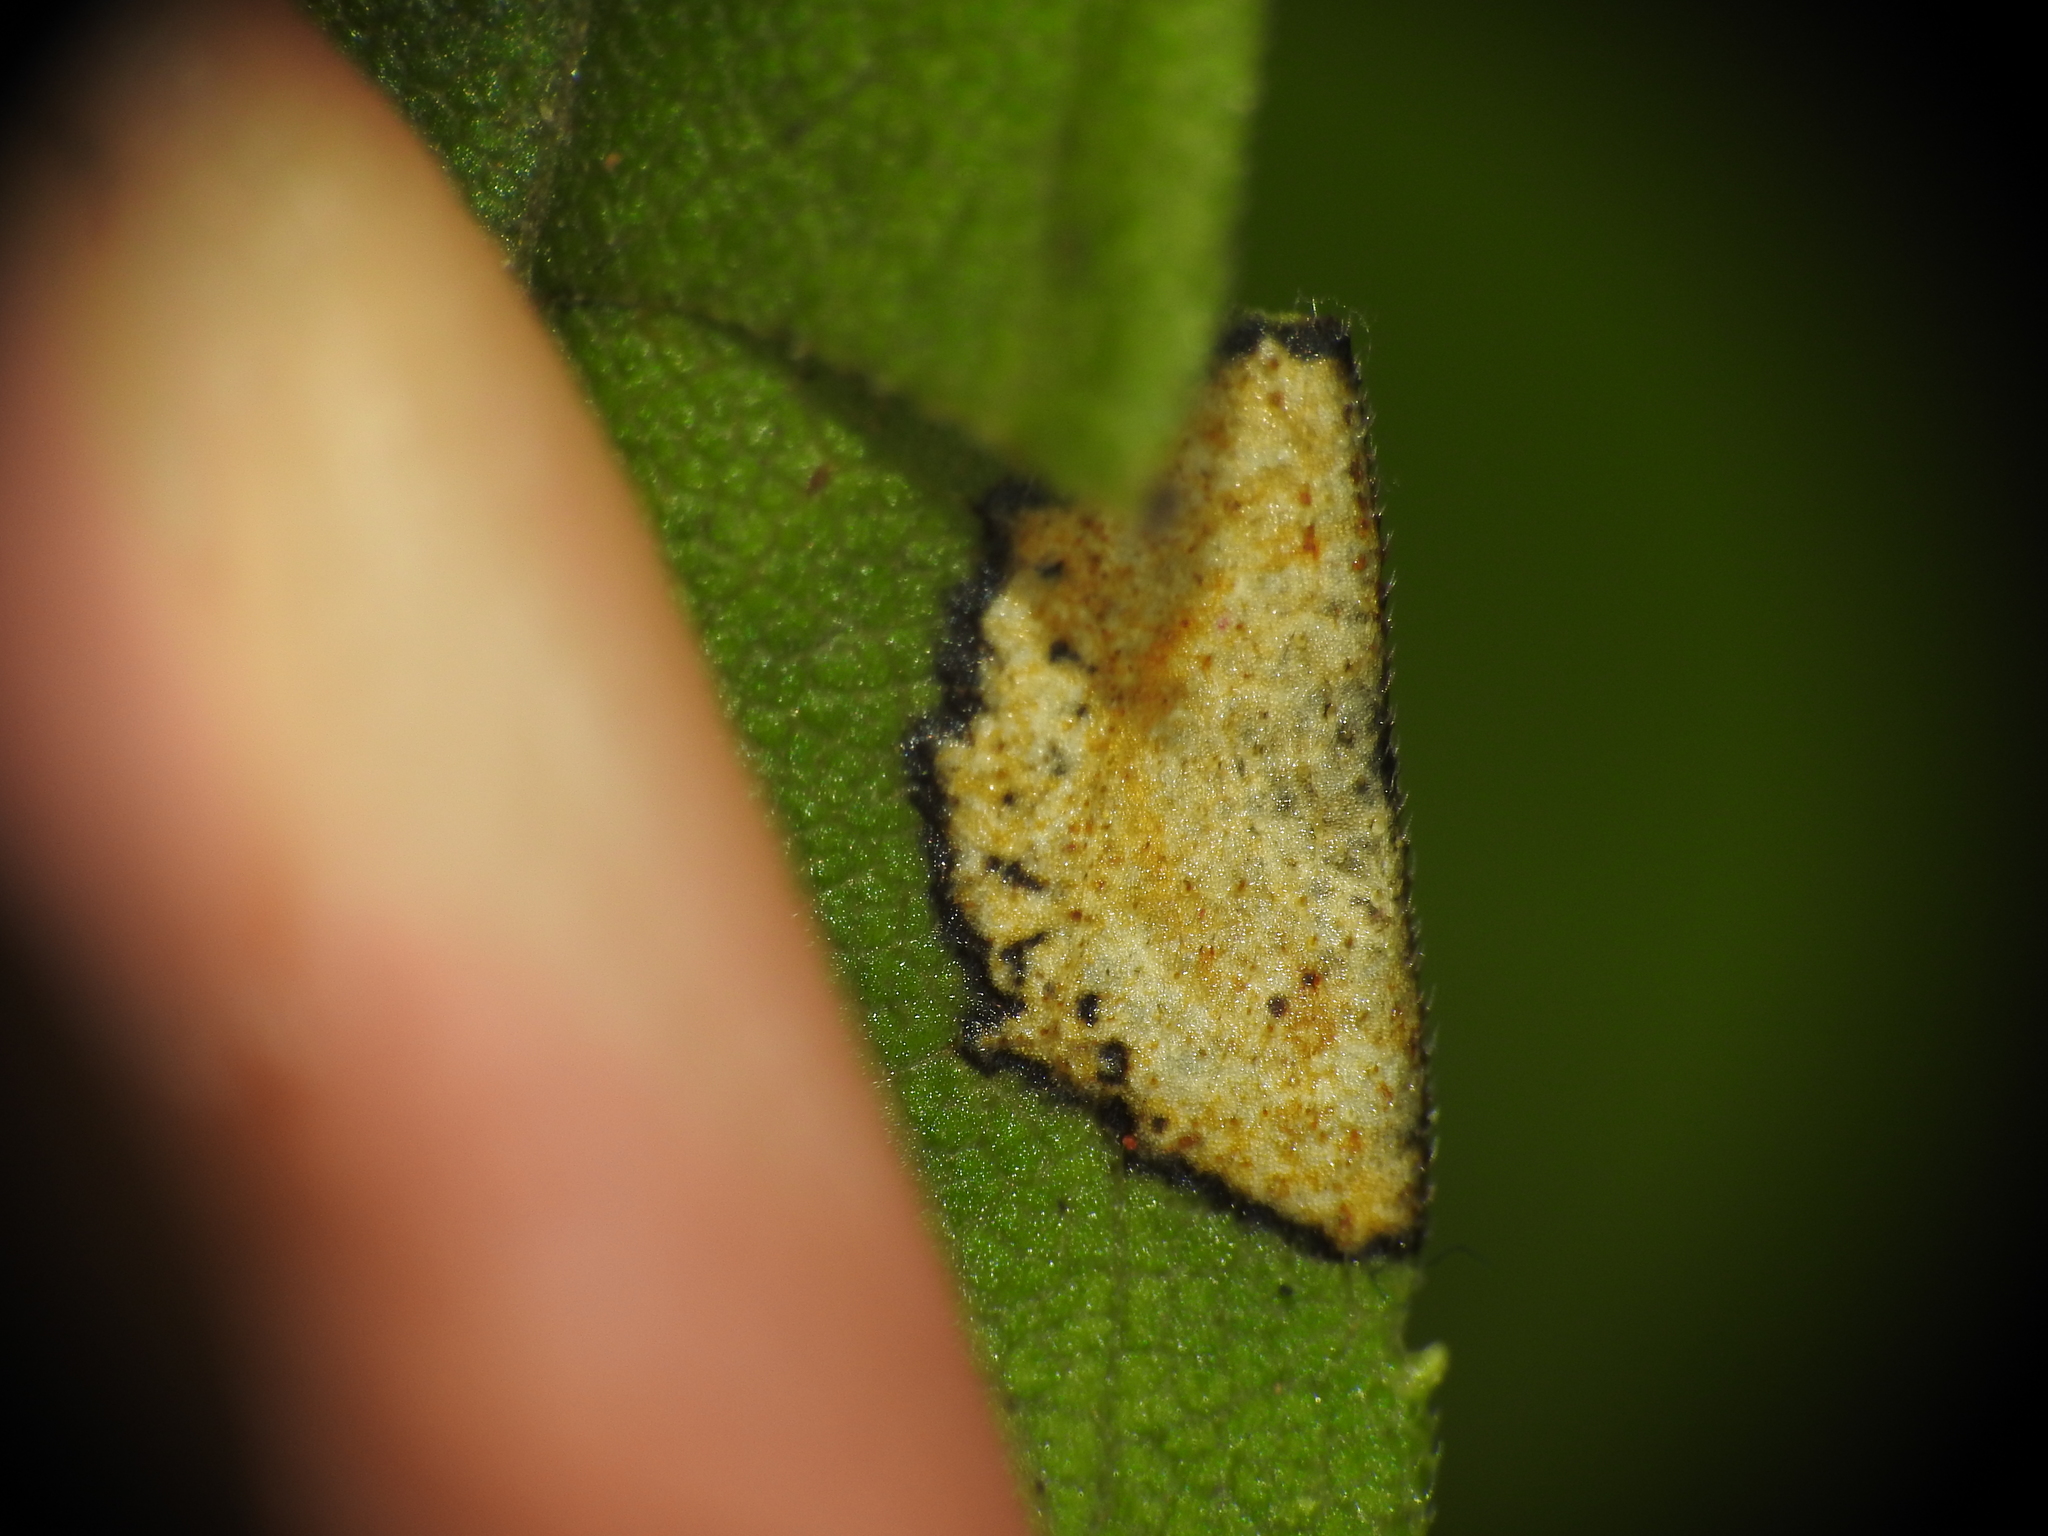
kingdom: Animalia
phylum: Arthropoda
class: Insecta
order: Diptera
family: Cecidomyiidae
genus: Asteromyia
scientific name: Asteromyia carbonifera
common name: Carbonifera goldenrod gall midge
